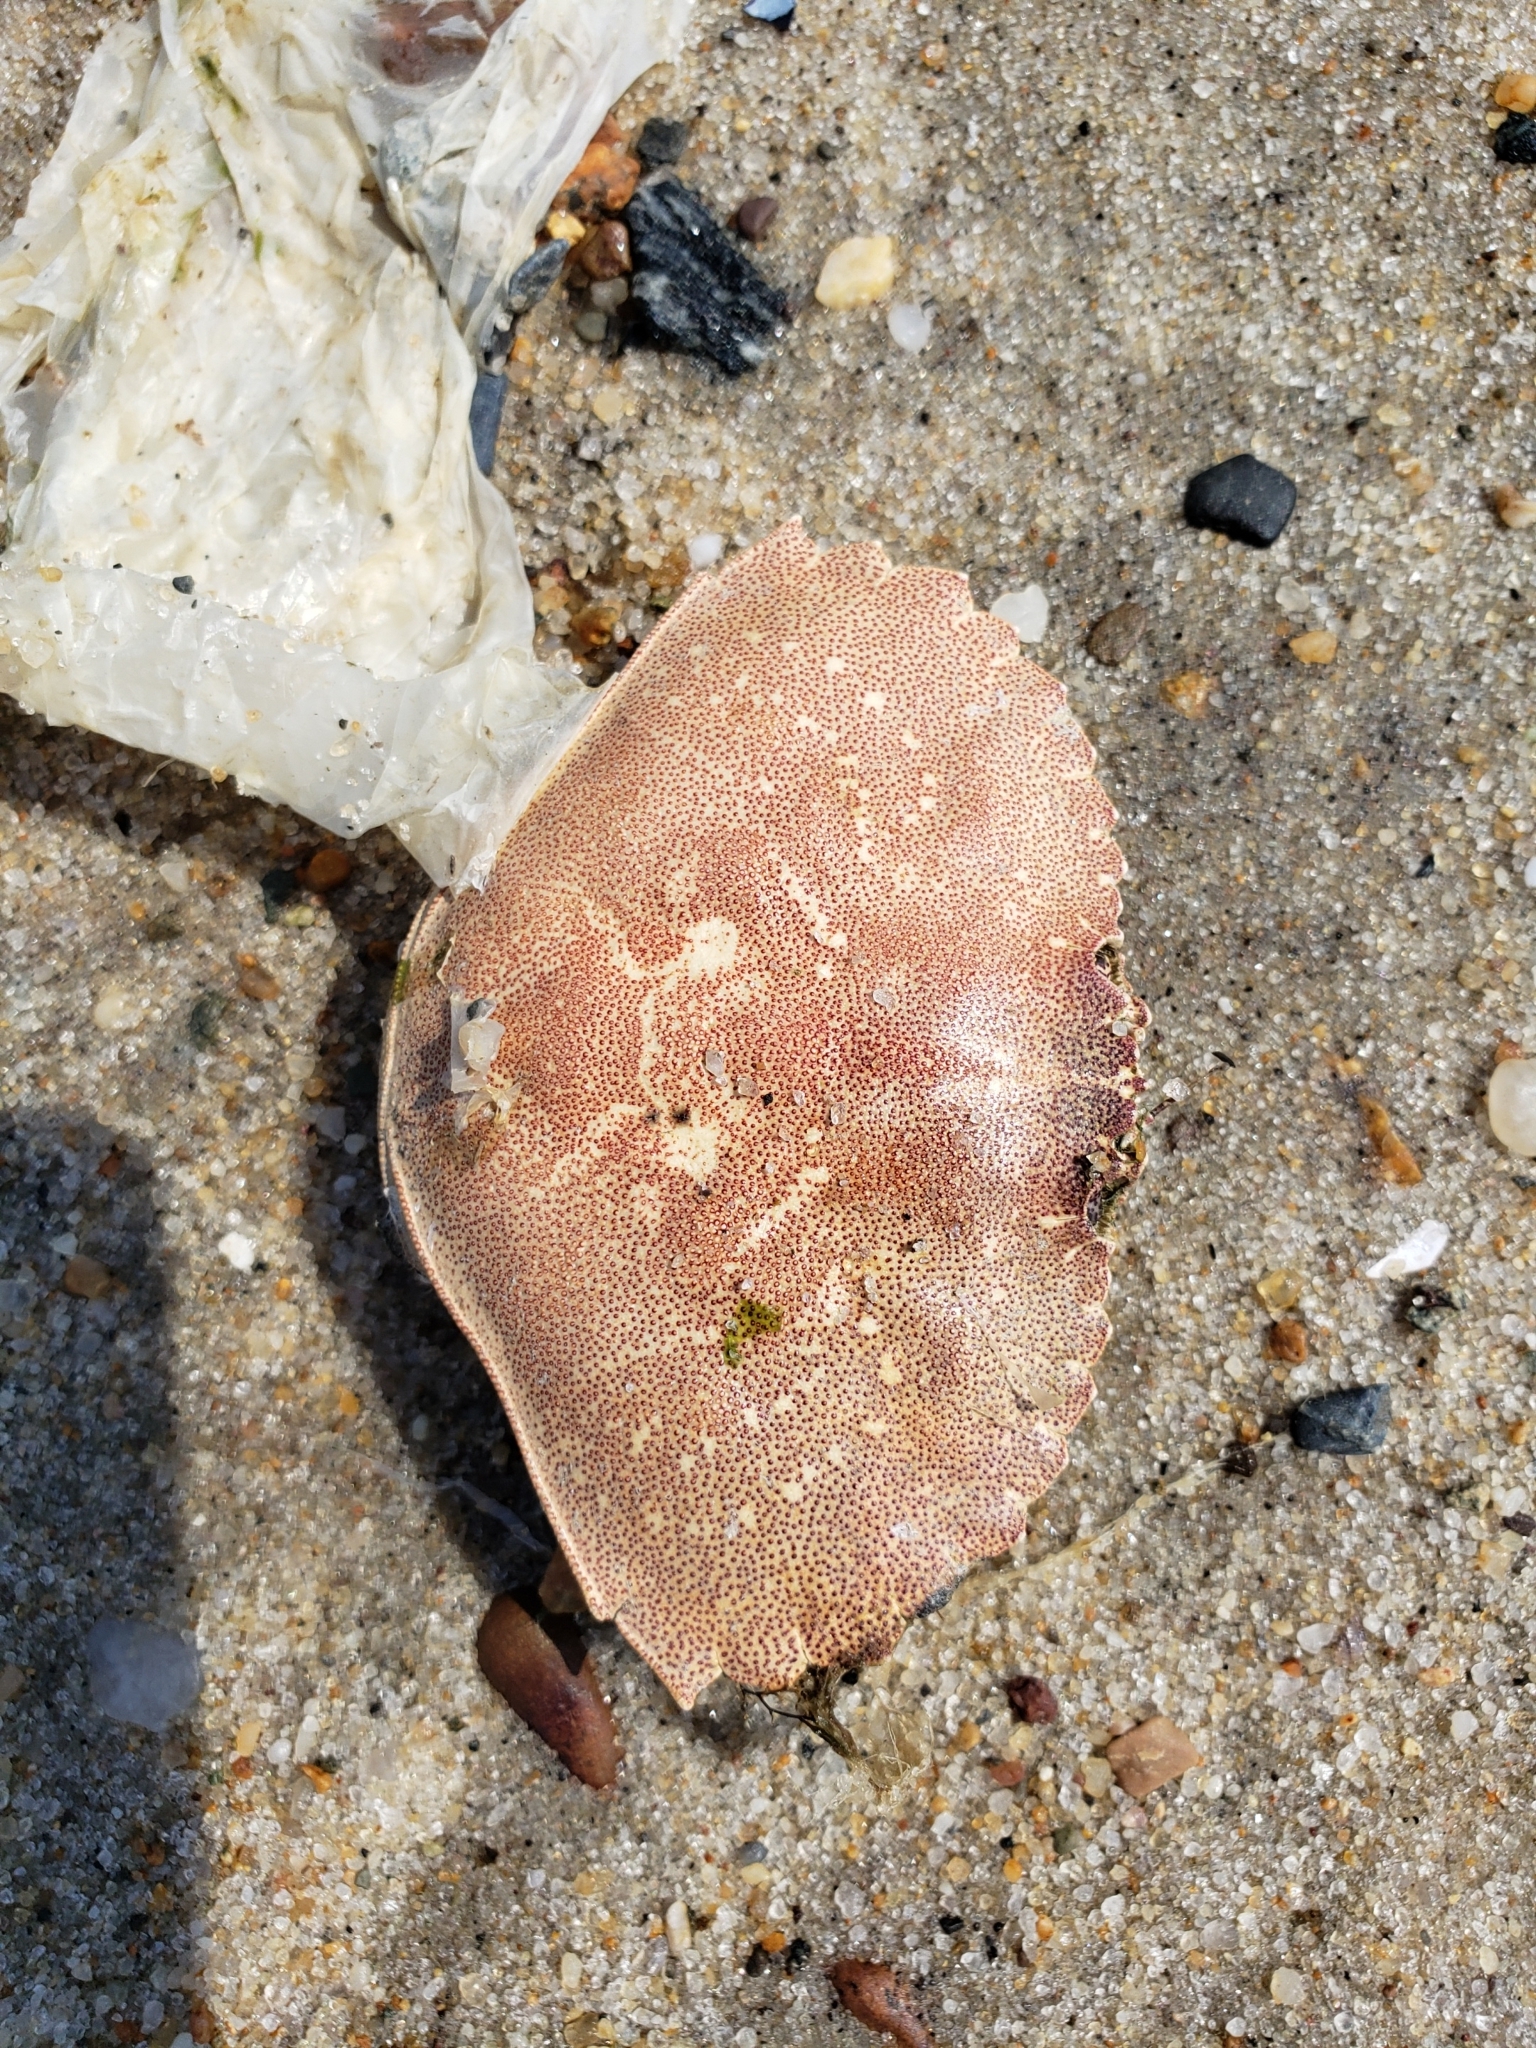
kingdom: Animalia
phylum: Arthropoda
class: Malacostraca
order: Decapoda
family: Cancridae
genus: Cancer
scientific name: Cancer irroratus
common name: Atlantic rock crab
